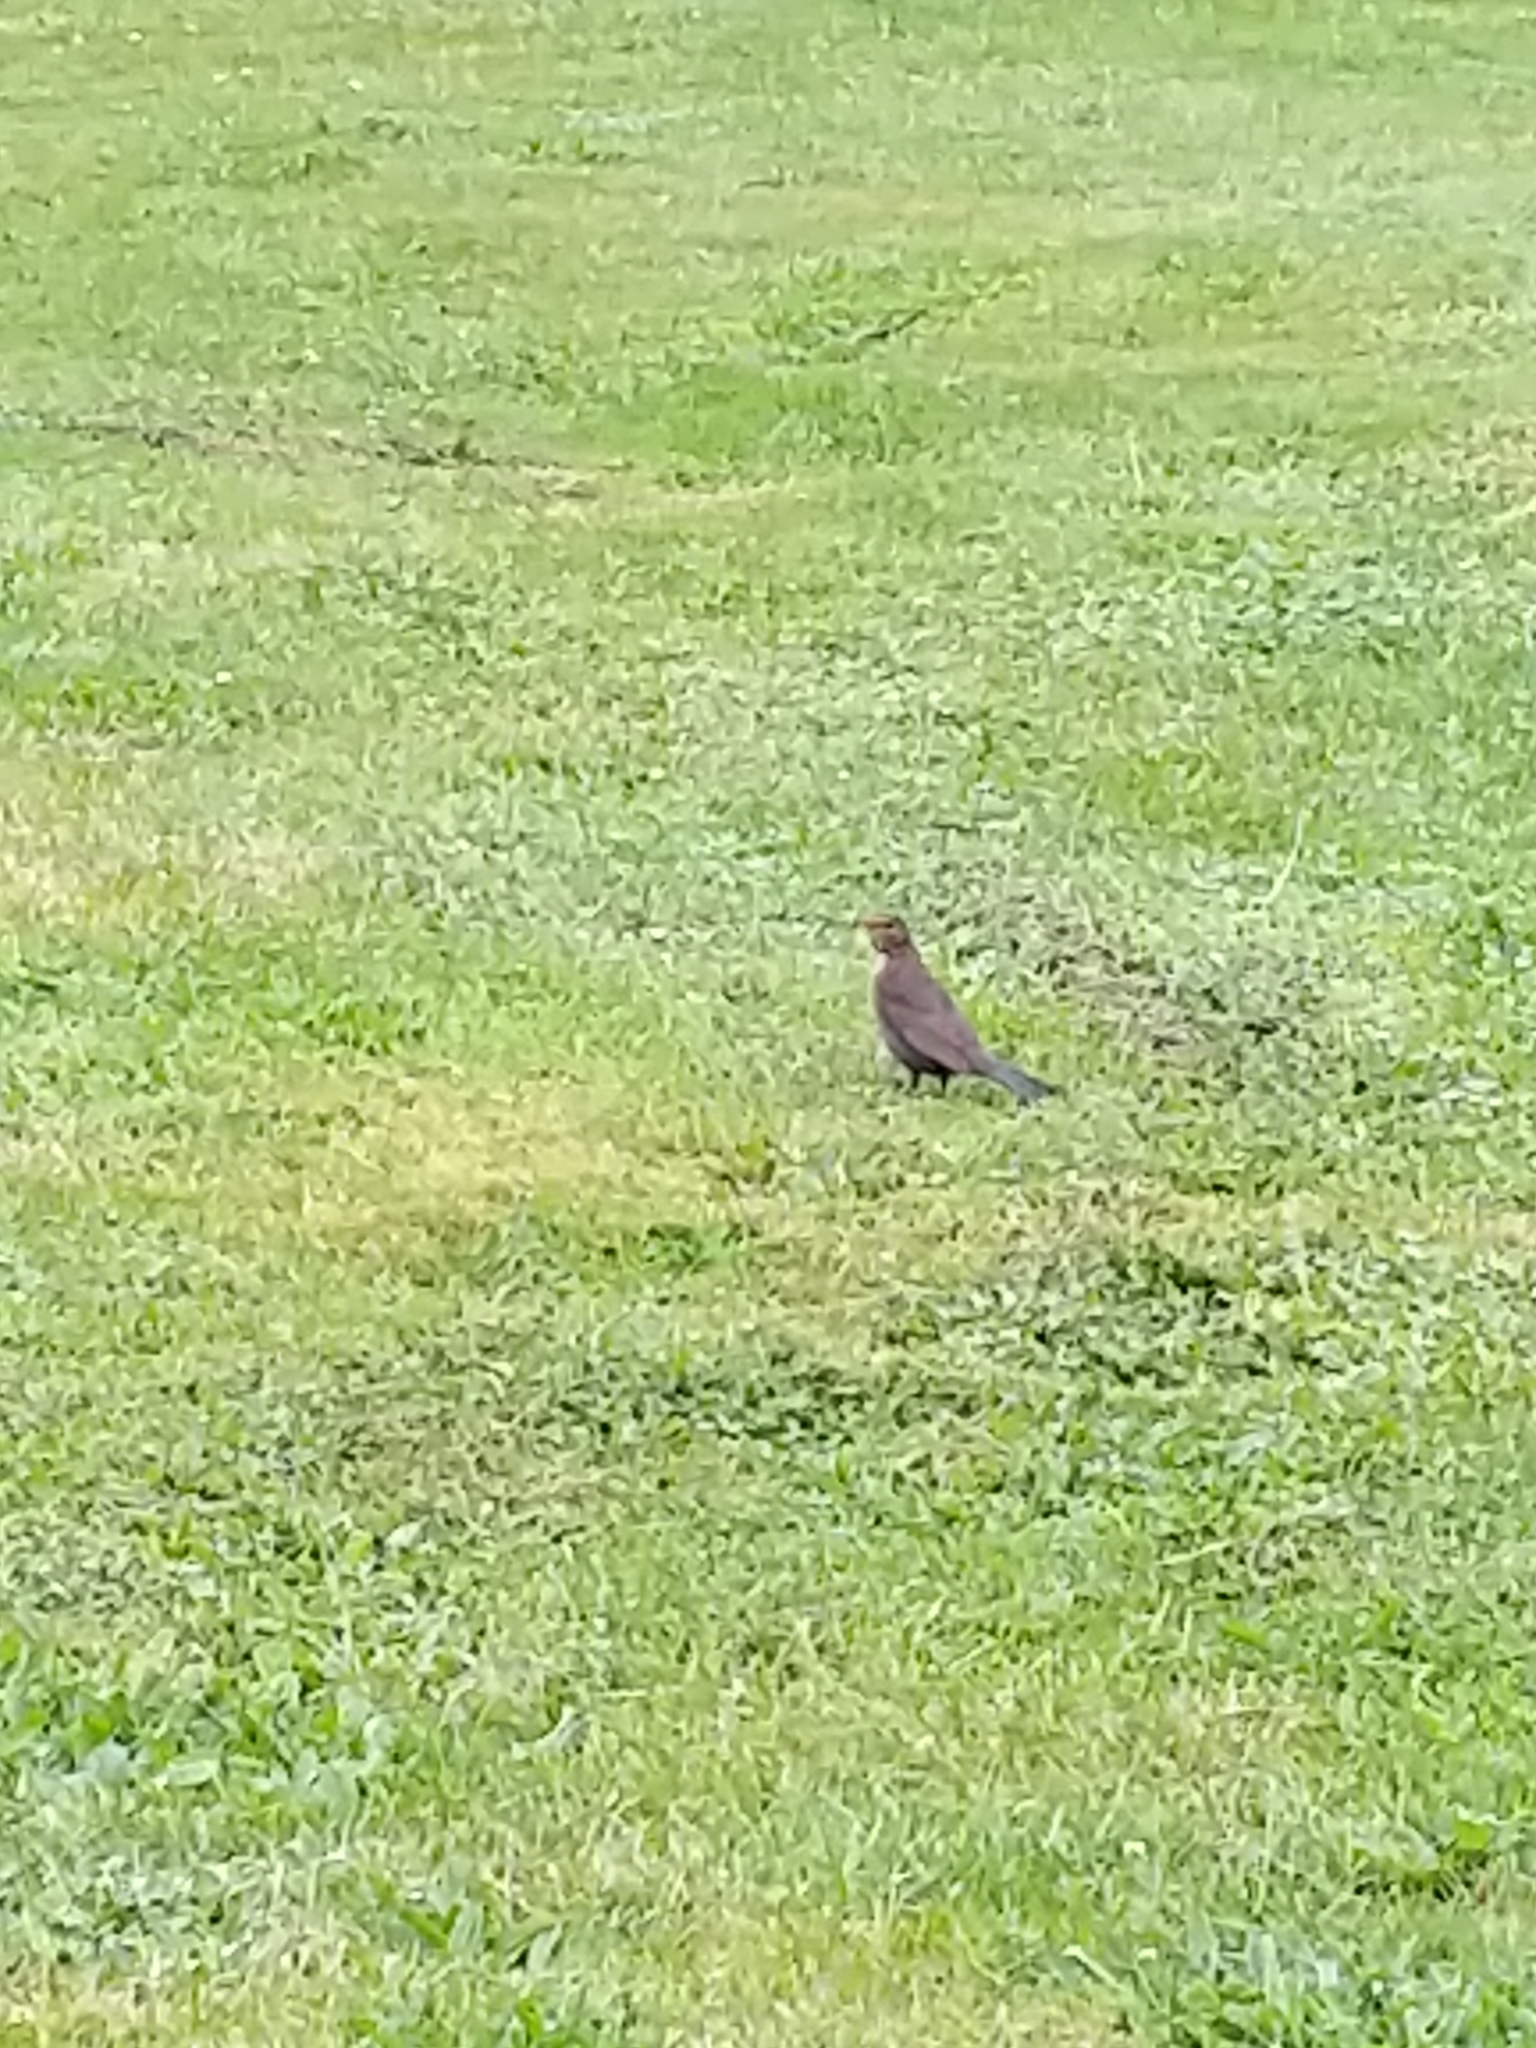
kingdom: Animalia
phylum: Chordata
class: Aves
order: Passeriformes
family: Turdidae
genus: Turdus
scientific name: Turdus merula
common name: Common blackbird
